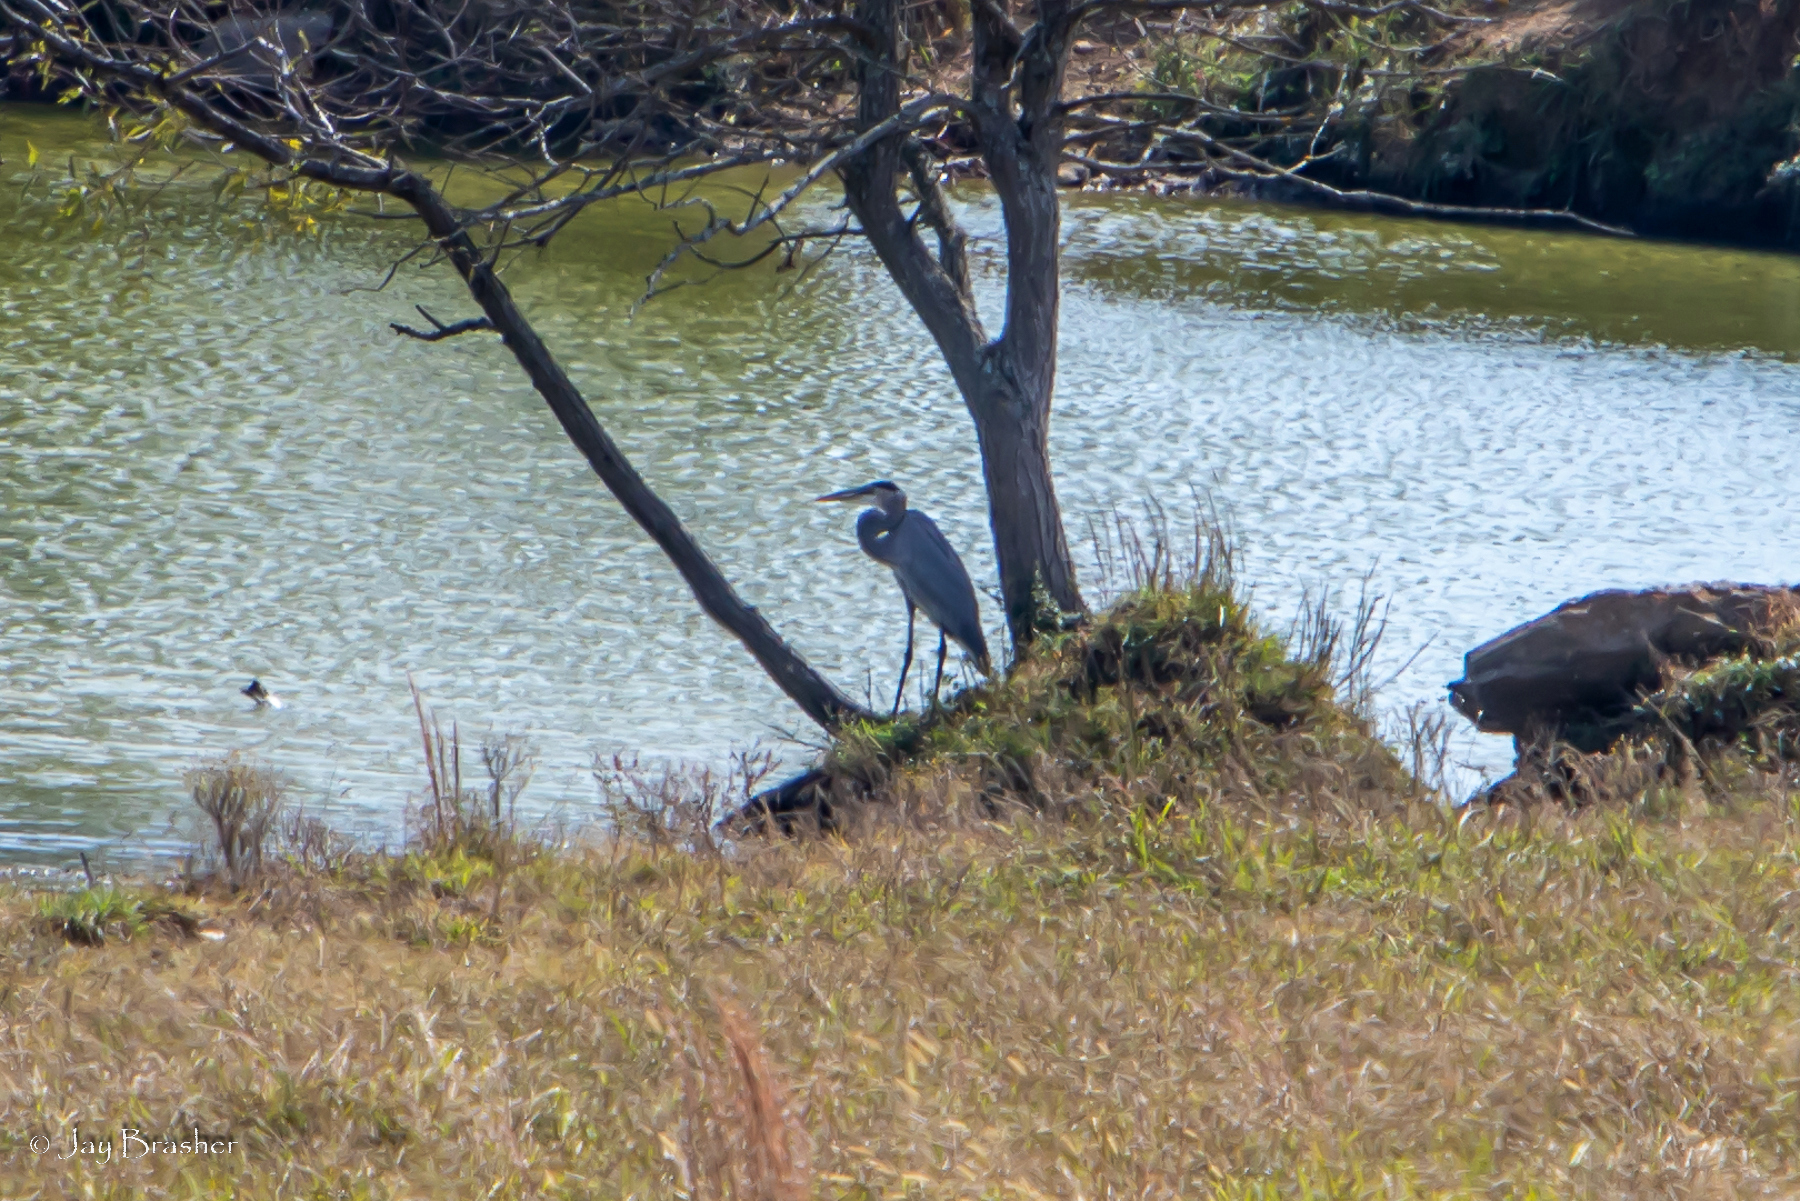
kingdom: Animalia
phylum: Chordata
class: Aves
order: Pelecaniformes
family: Ardeidae
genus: Ardea
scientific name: Ardea herodias
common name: Great blue heron
